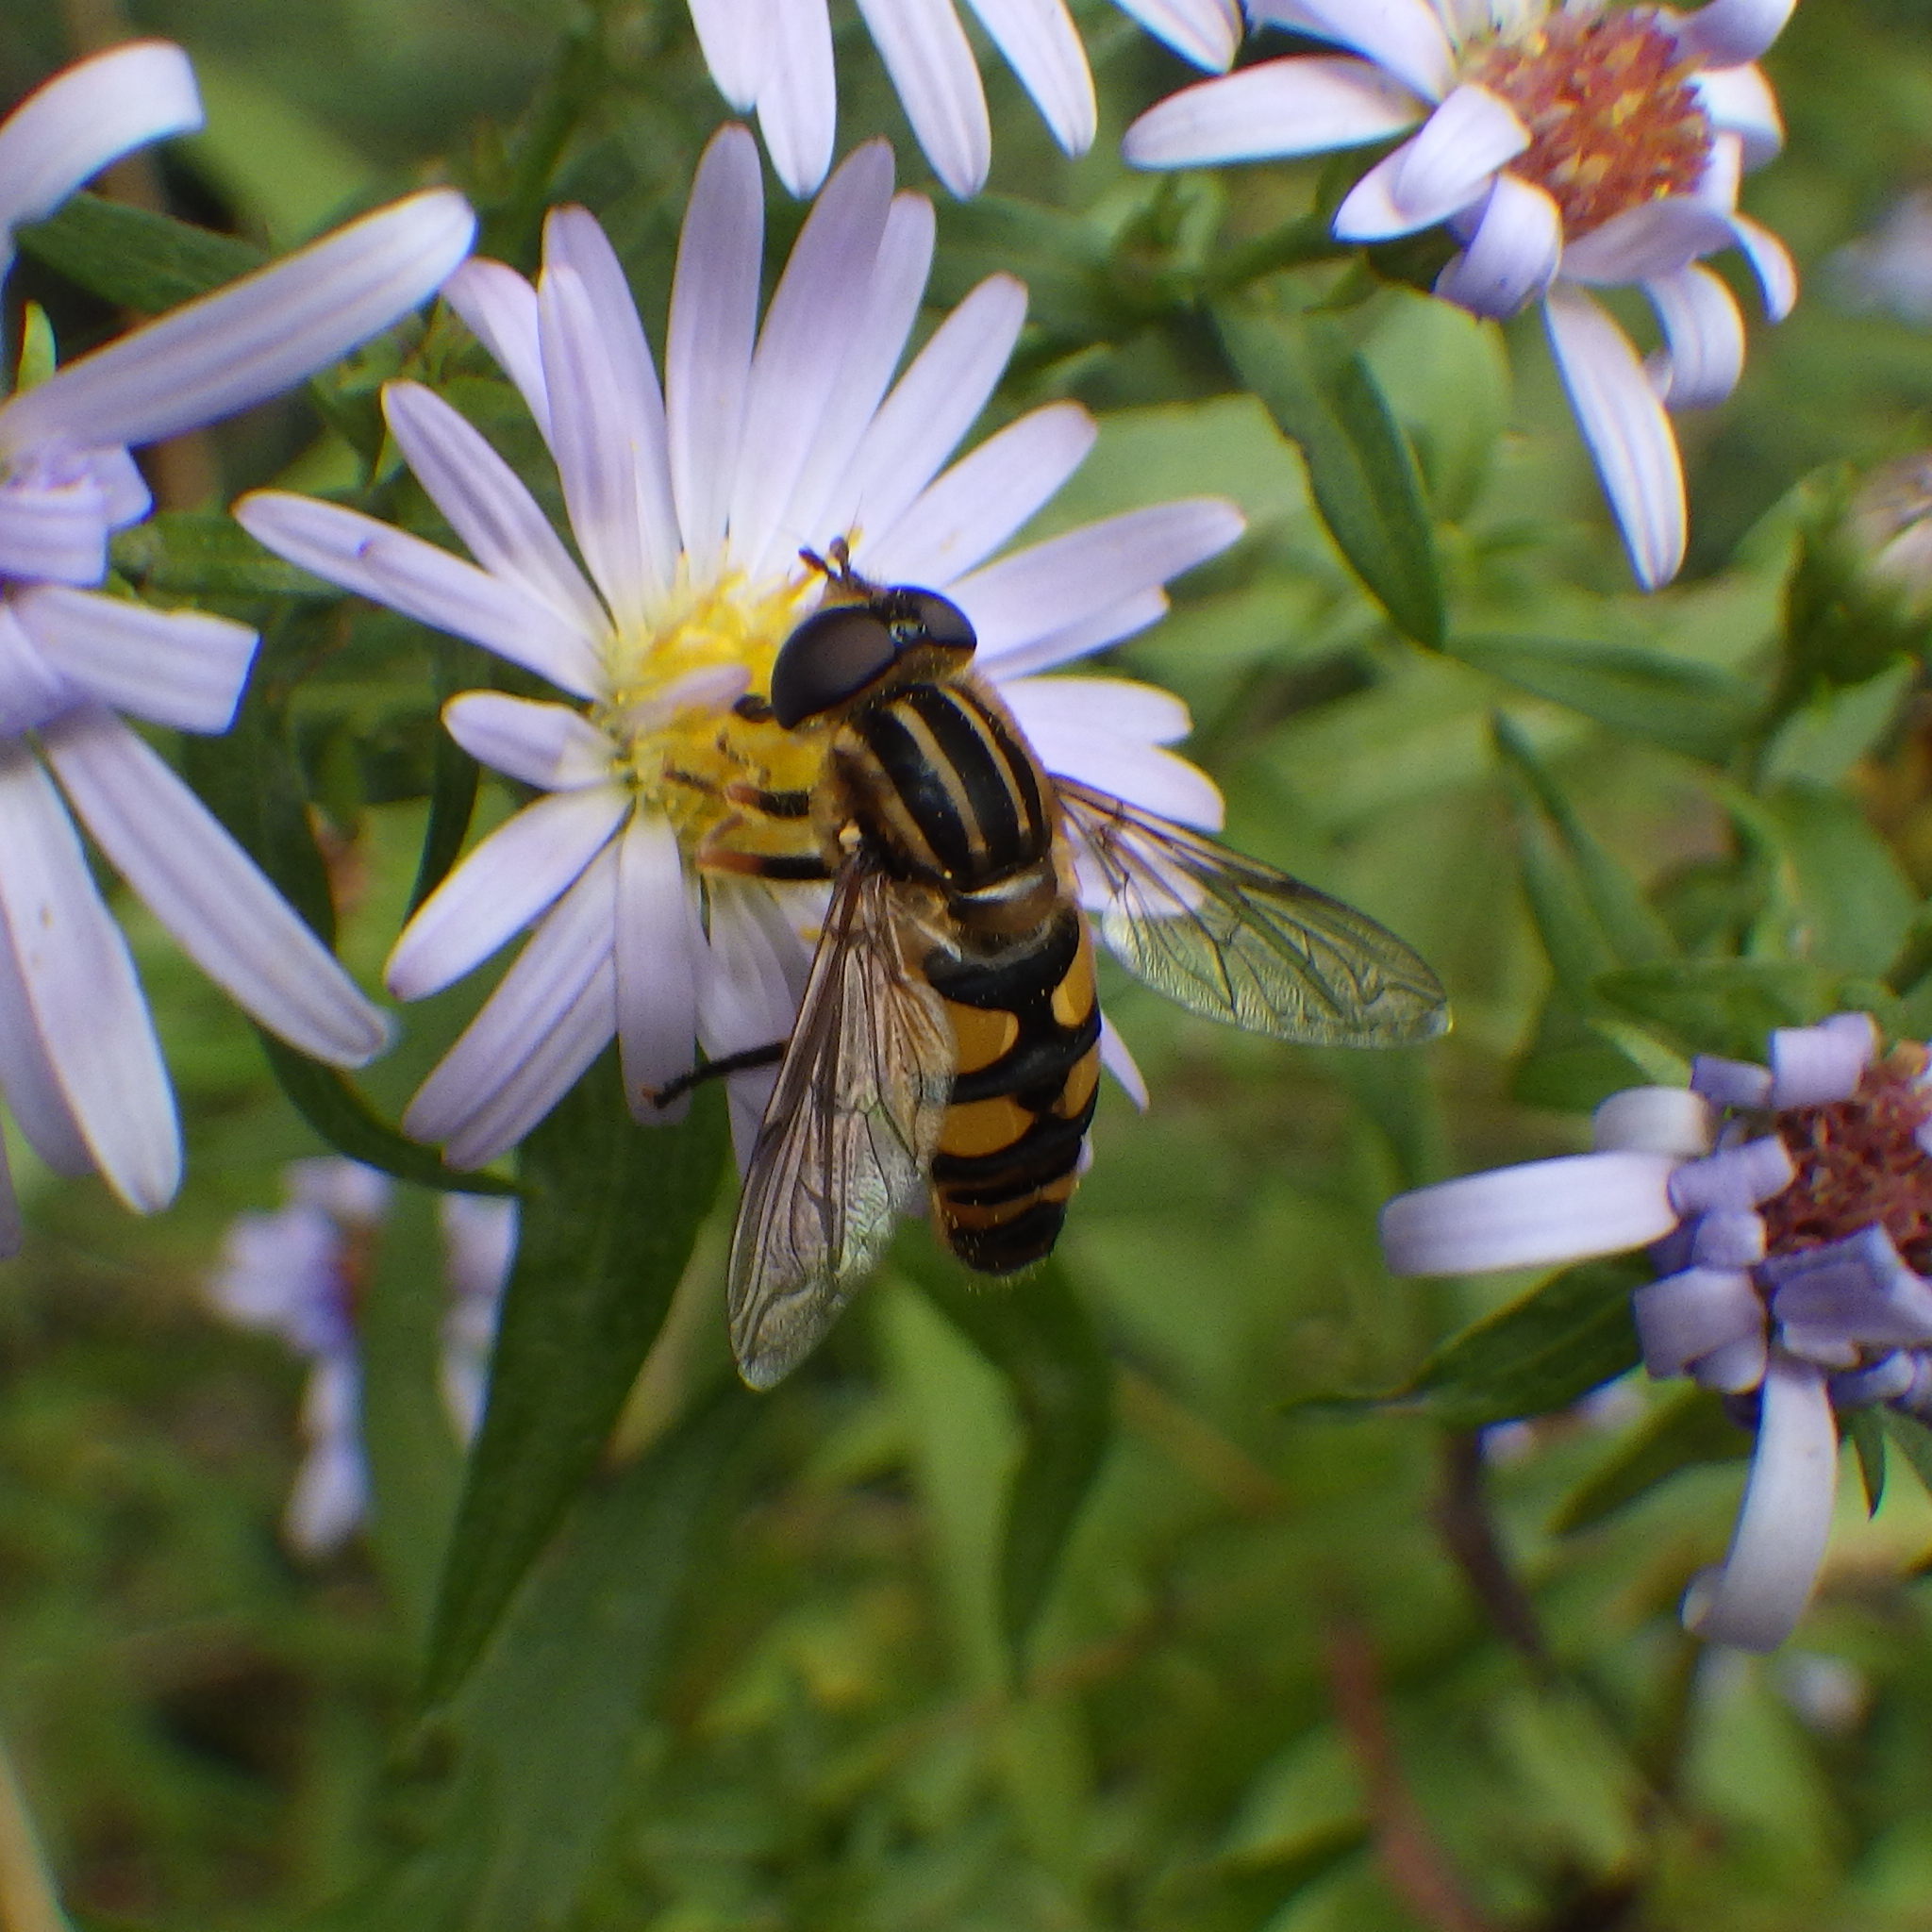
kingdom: Animalia
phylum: Arthropoda
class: Insecta
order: Diptera
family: Syrphidae
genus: Helophilus
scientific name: Helophilus fasciatus
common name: Narrow-headed marsh fly
